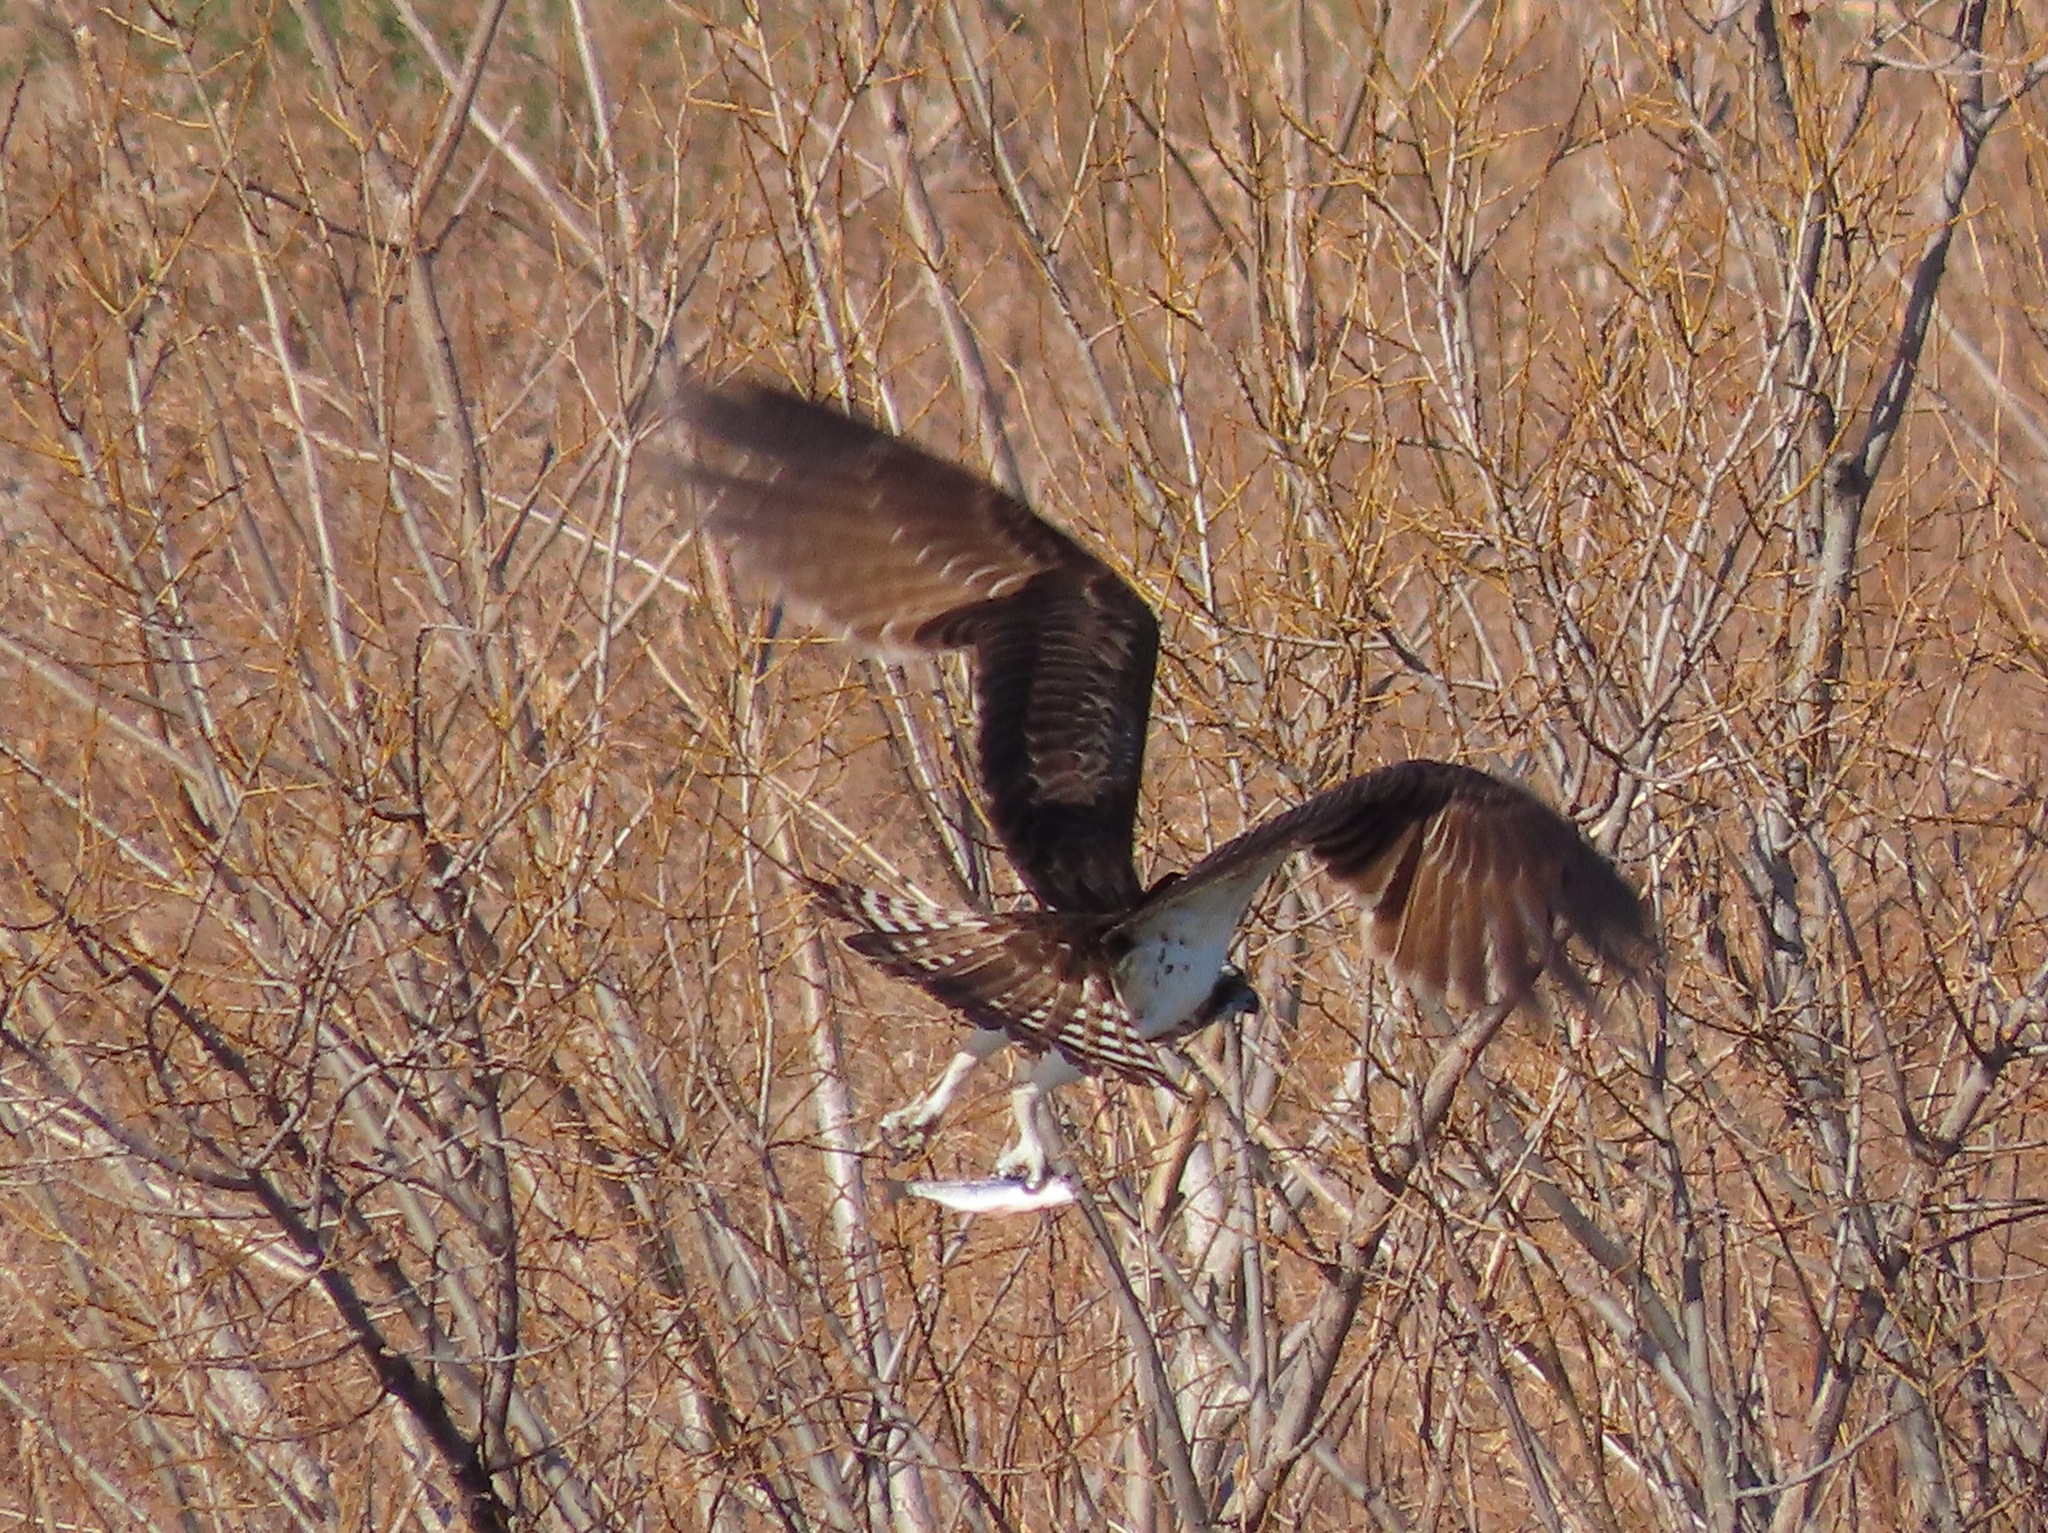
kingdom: Animalia
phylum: Chordata
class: Aves
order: Accipitriformes
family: Pandionidae
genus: Pandion
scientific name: Pandion haliaetus
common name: Osprey
